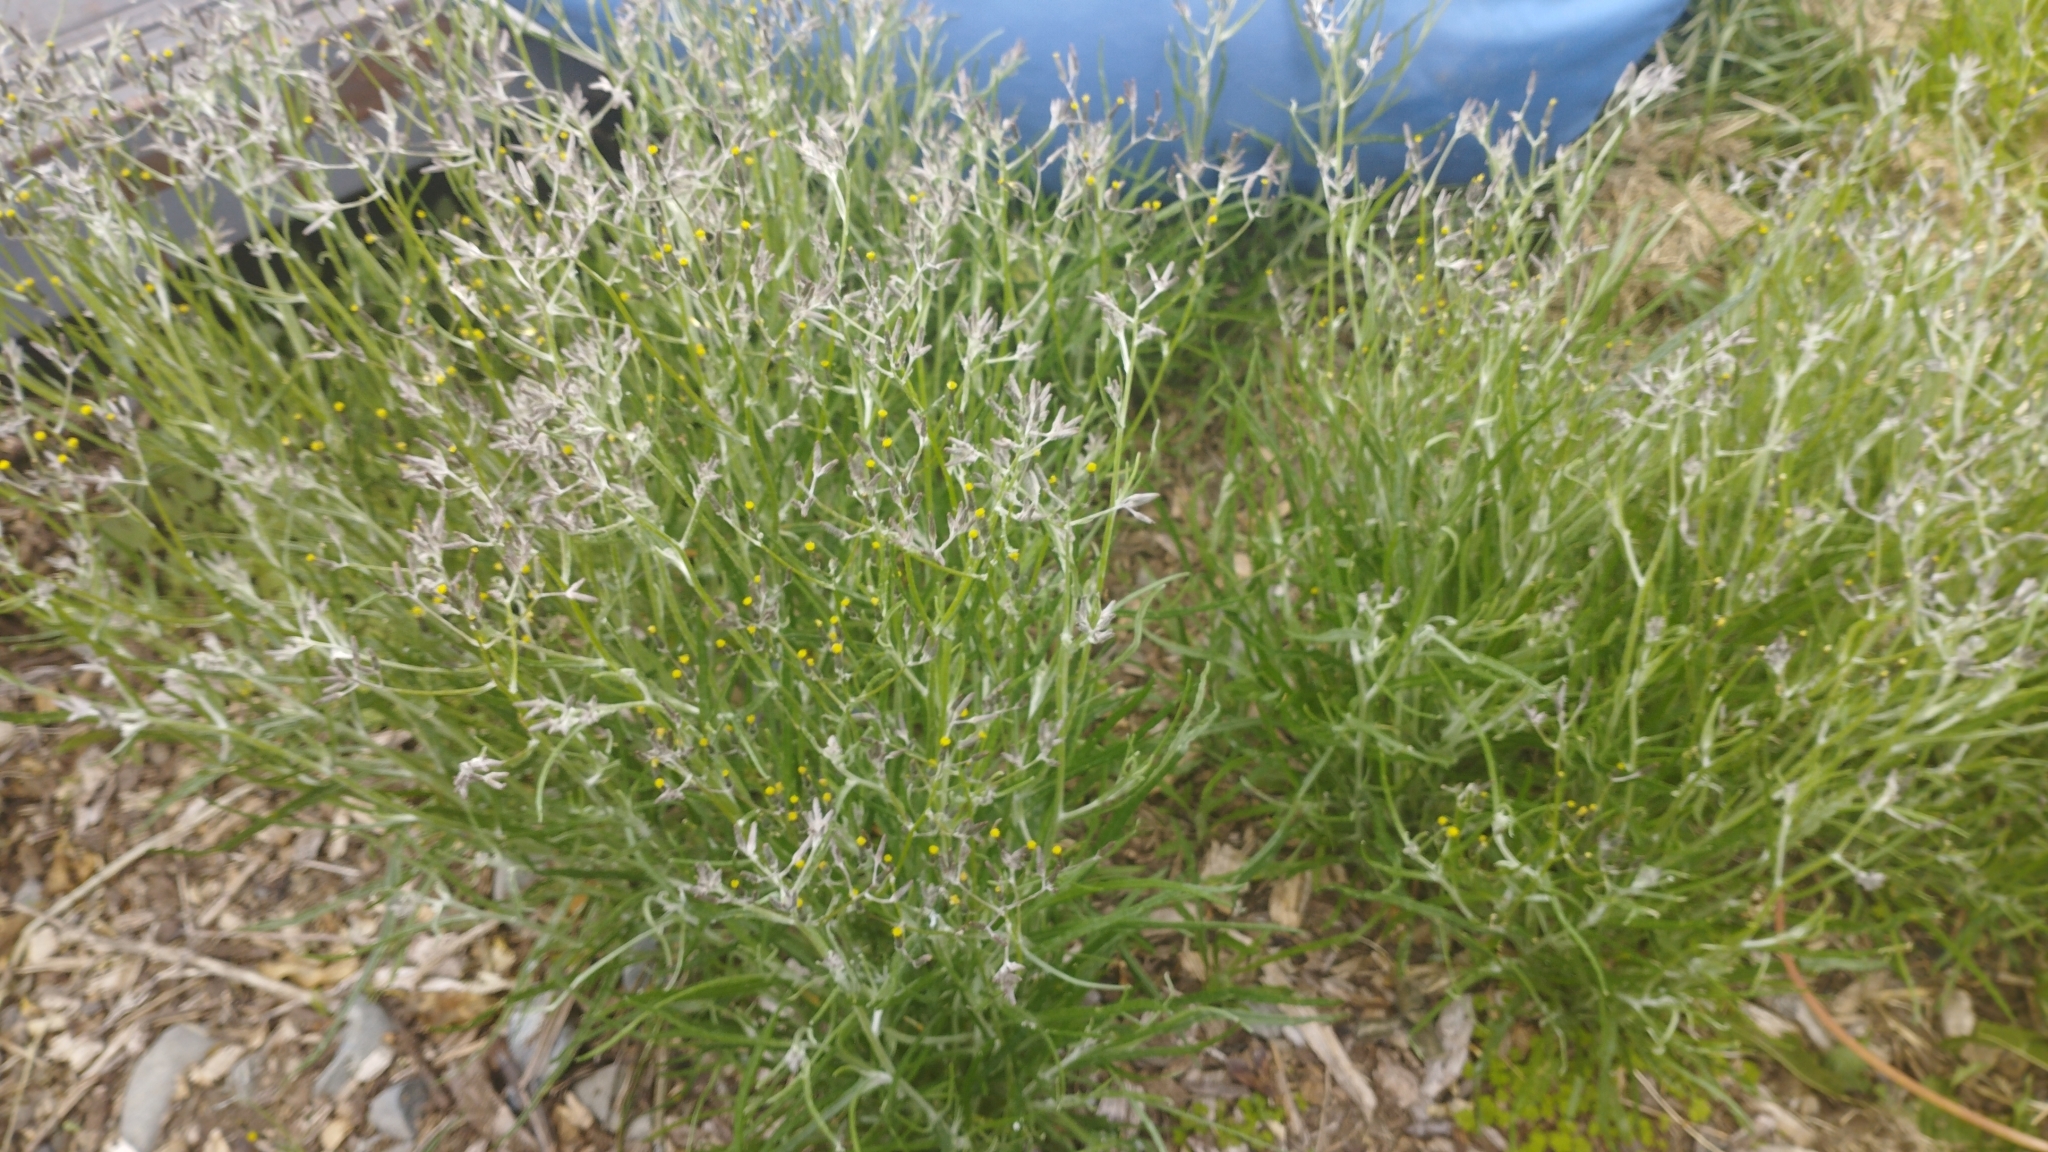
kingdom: Plantae
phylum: Tracheophyta
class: Magnoliopsida
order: Asterales
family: Asteraceae
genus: Senecio
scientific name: Senecio quadridentatus
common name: Cotton fireweed
